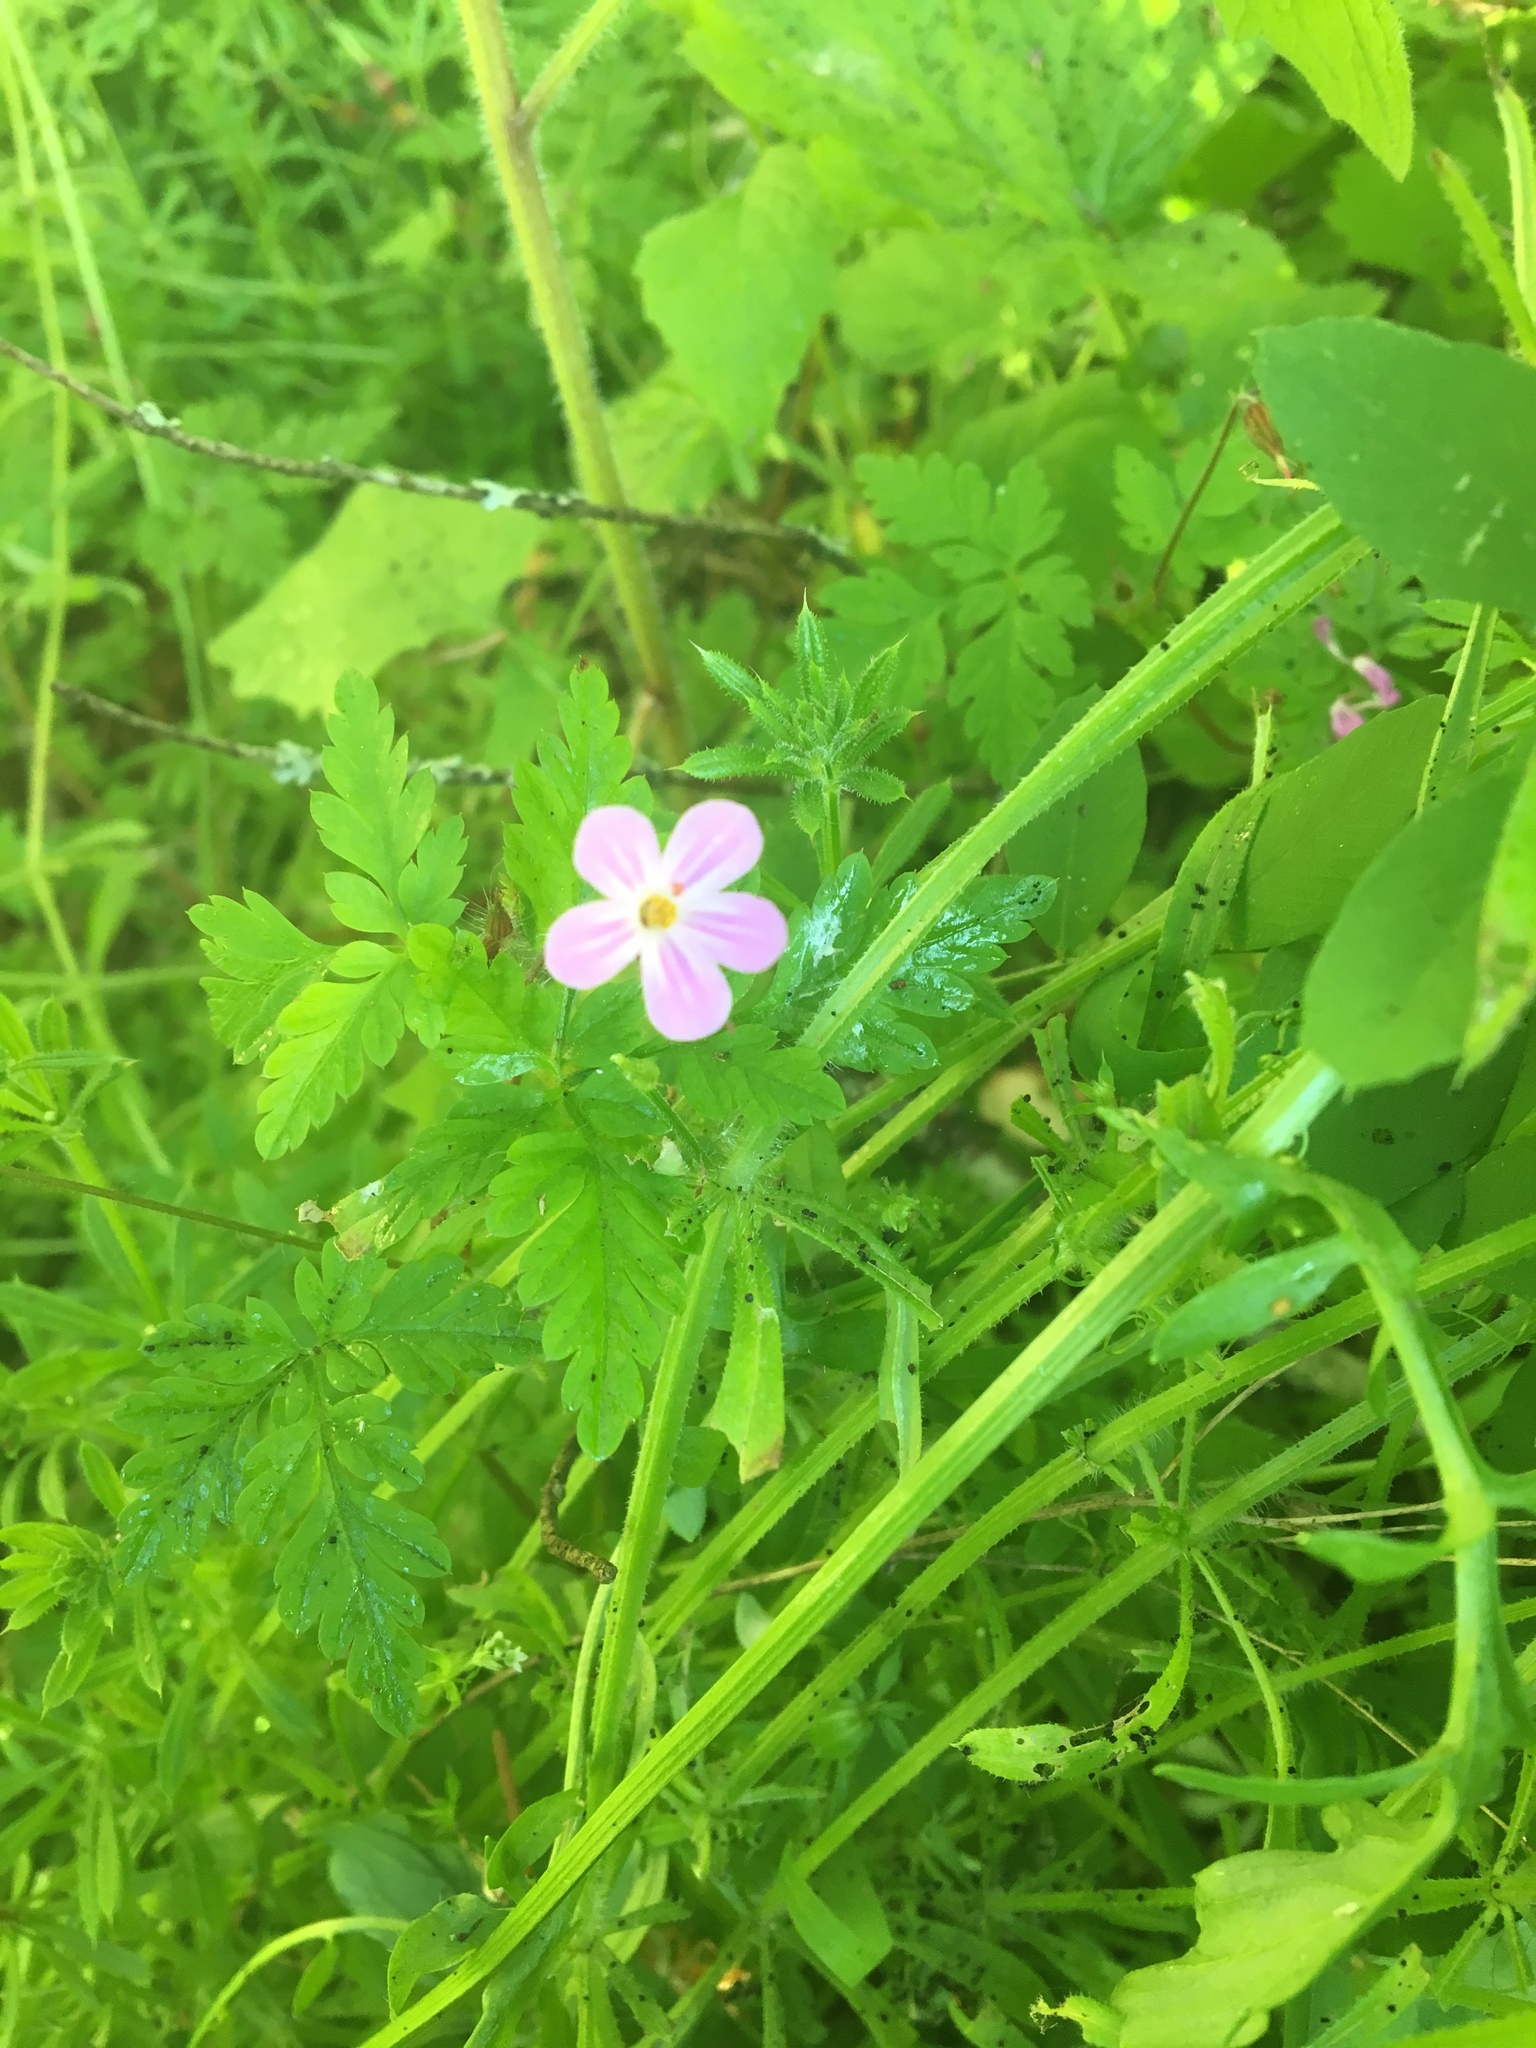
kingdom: Plantae
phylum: Tracheophyta
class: Magnoliopsida
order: Geraniales
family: Geraniaceae
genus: Geranium
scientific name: Geranium robertianum
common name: Herb-robert
